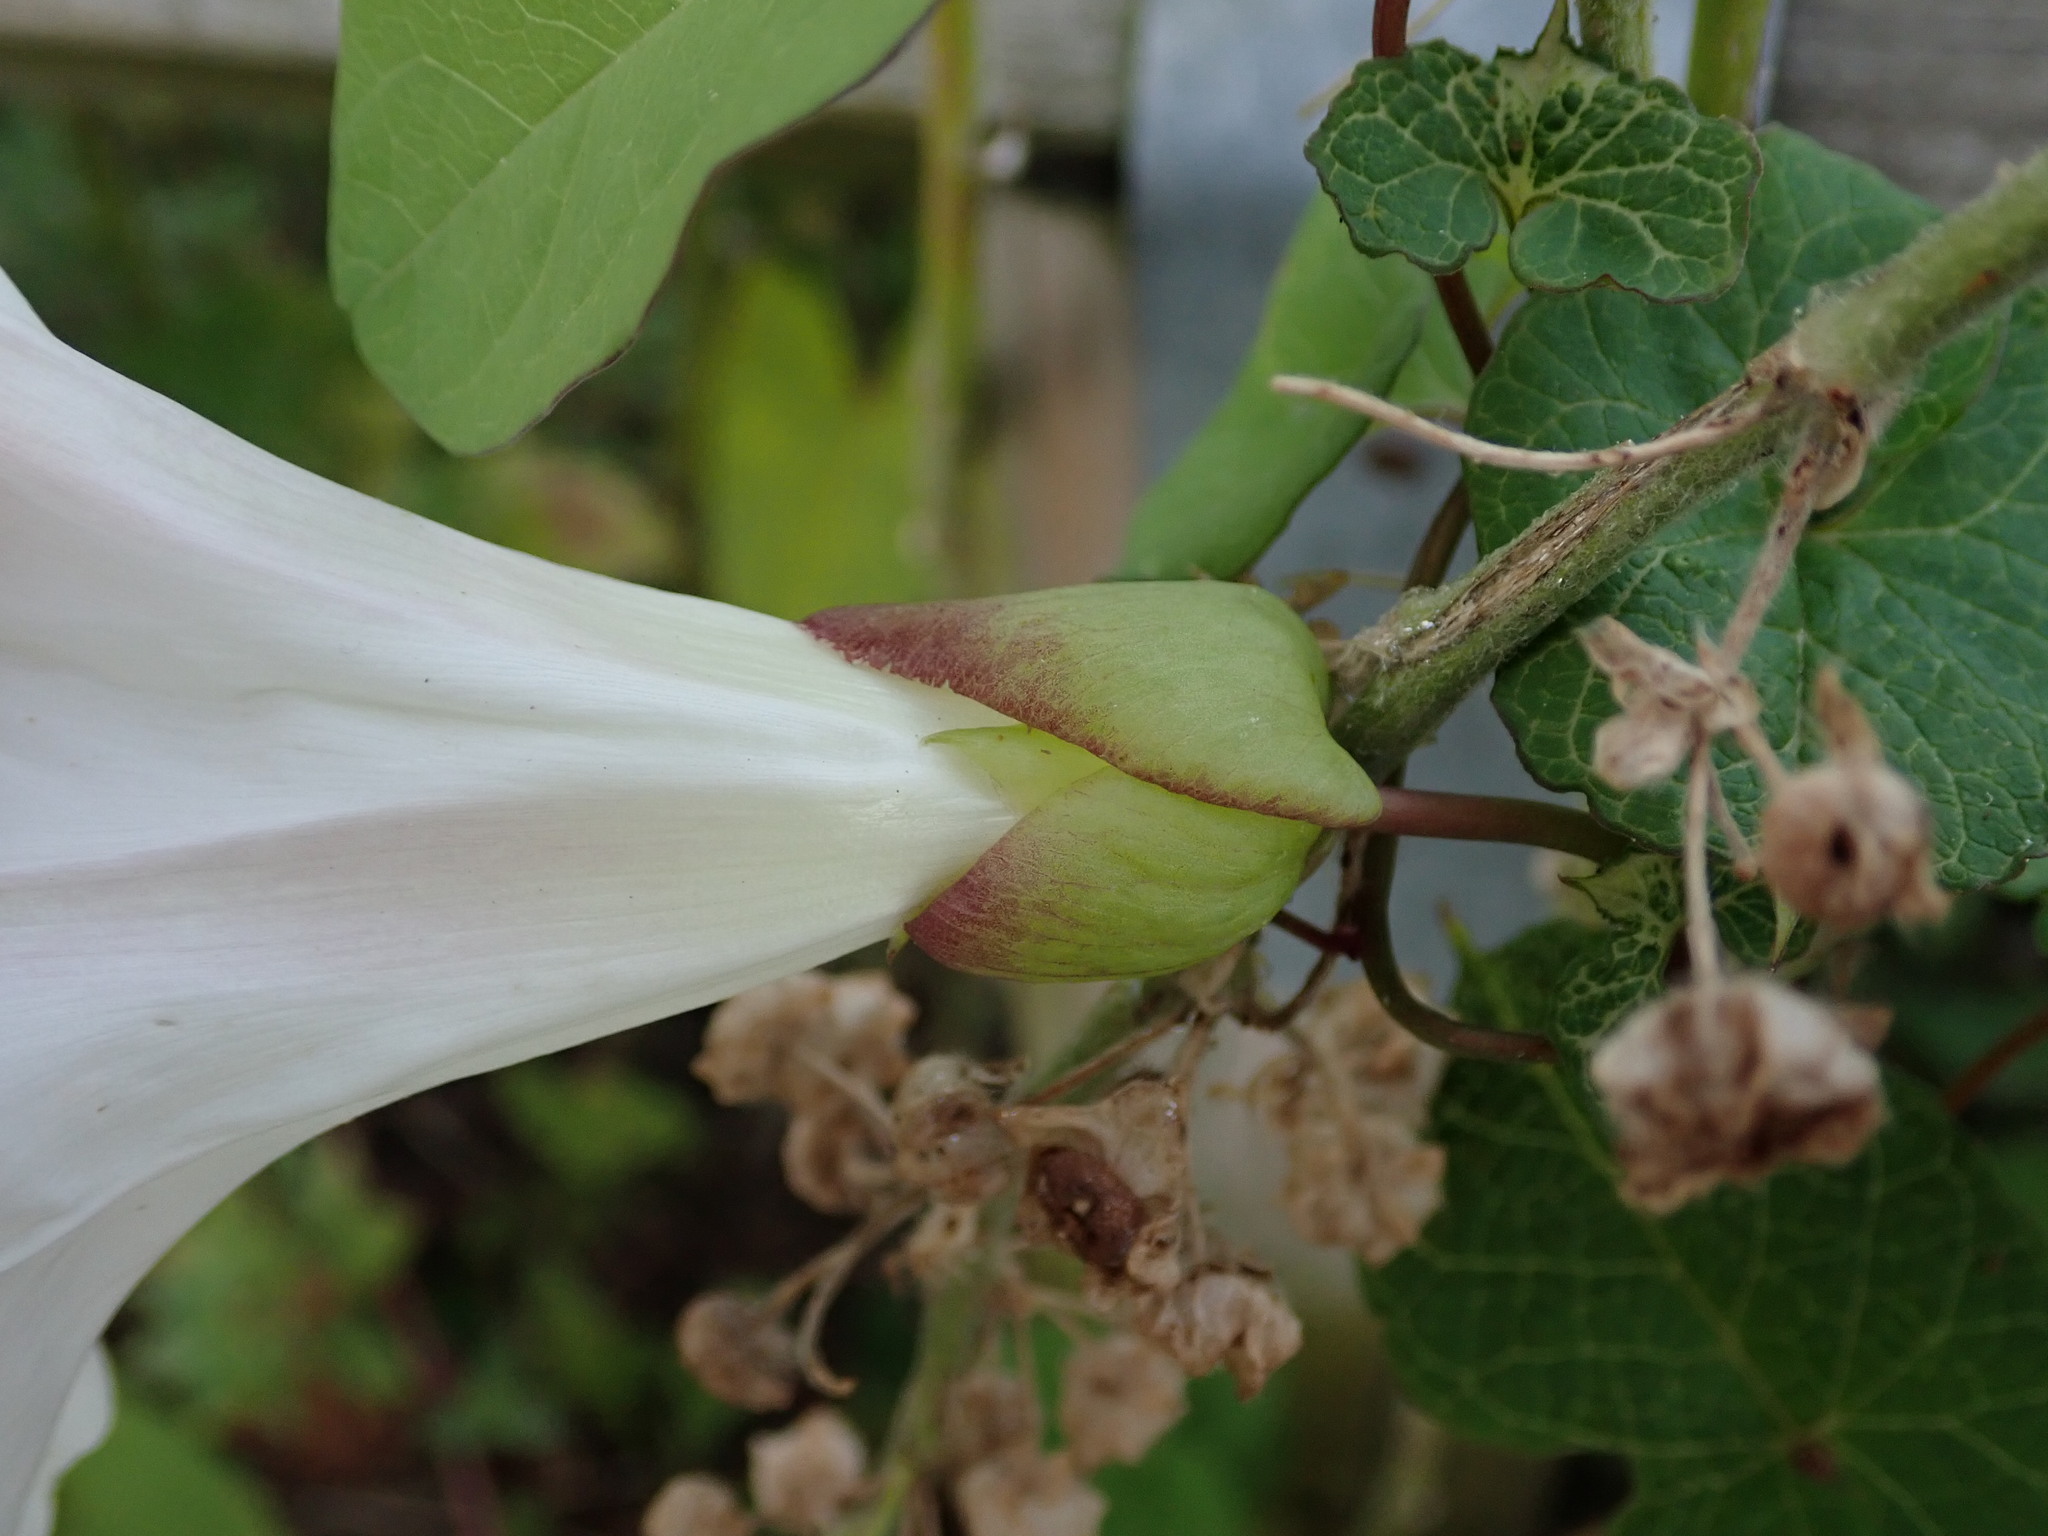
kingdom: Plantae
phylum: Tracheophyta
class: Magnoliopsida
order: Solanales
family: Convolvulaceae
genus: Calystegia
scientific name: Calystegia silvatica
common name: Large bindweed
